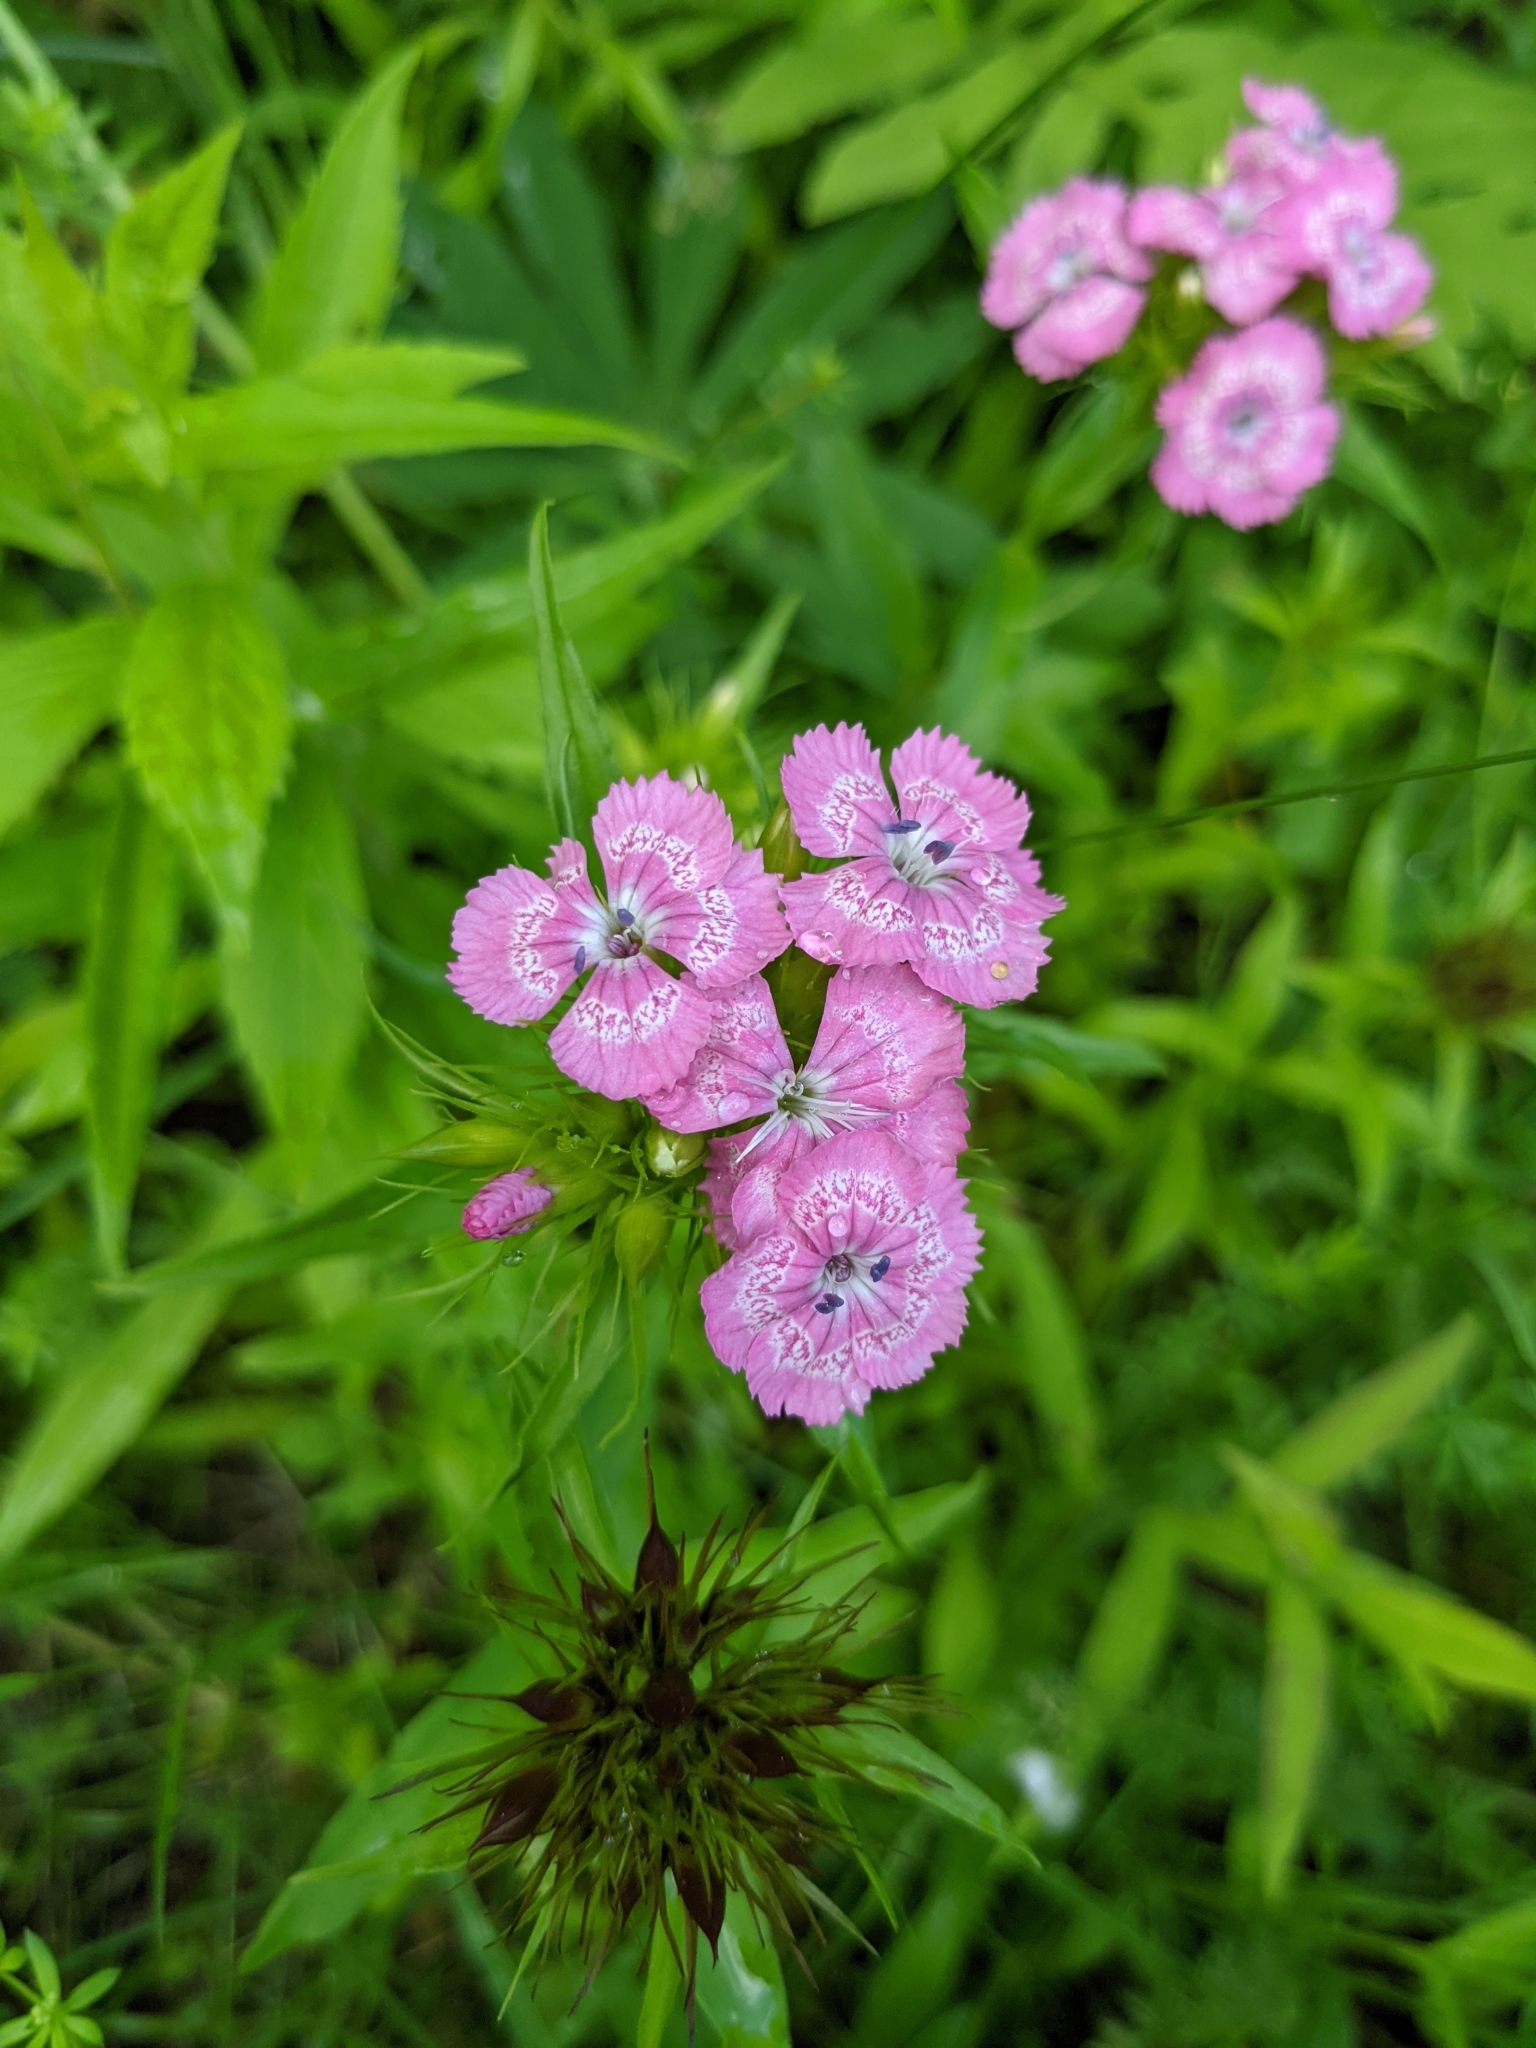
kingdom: Plantae
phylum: Tracheophyta
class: Magnoliopsida
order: Caryophyllales
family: Caryophyllaceae
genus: Dianthus
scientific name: Dianthus barbatus
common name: Sweet-william
